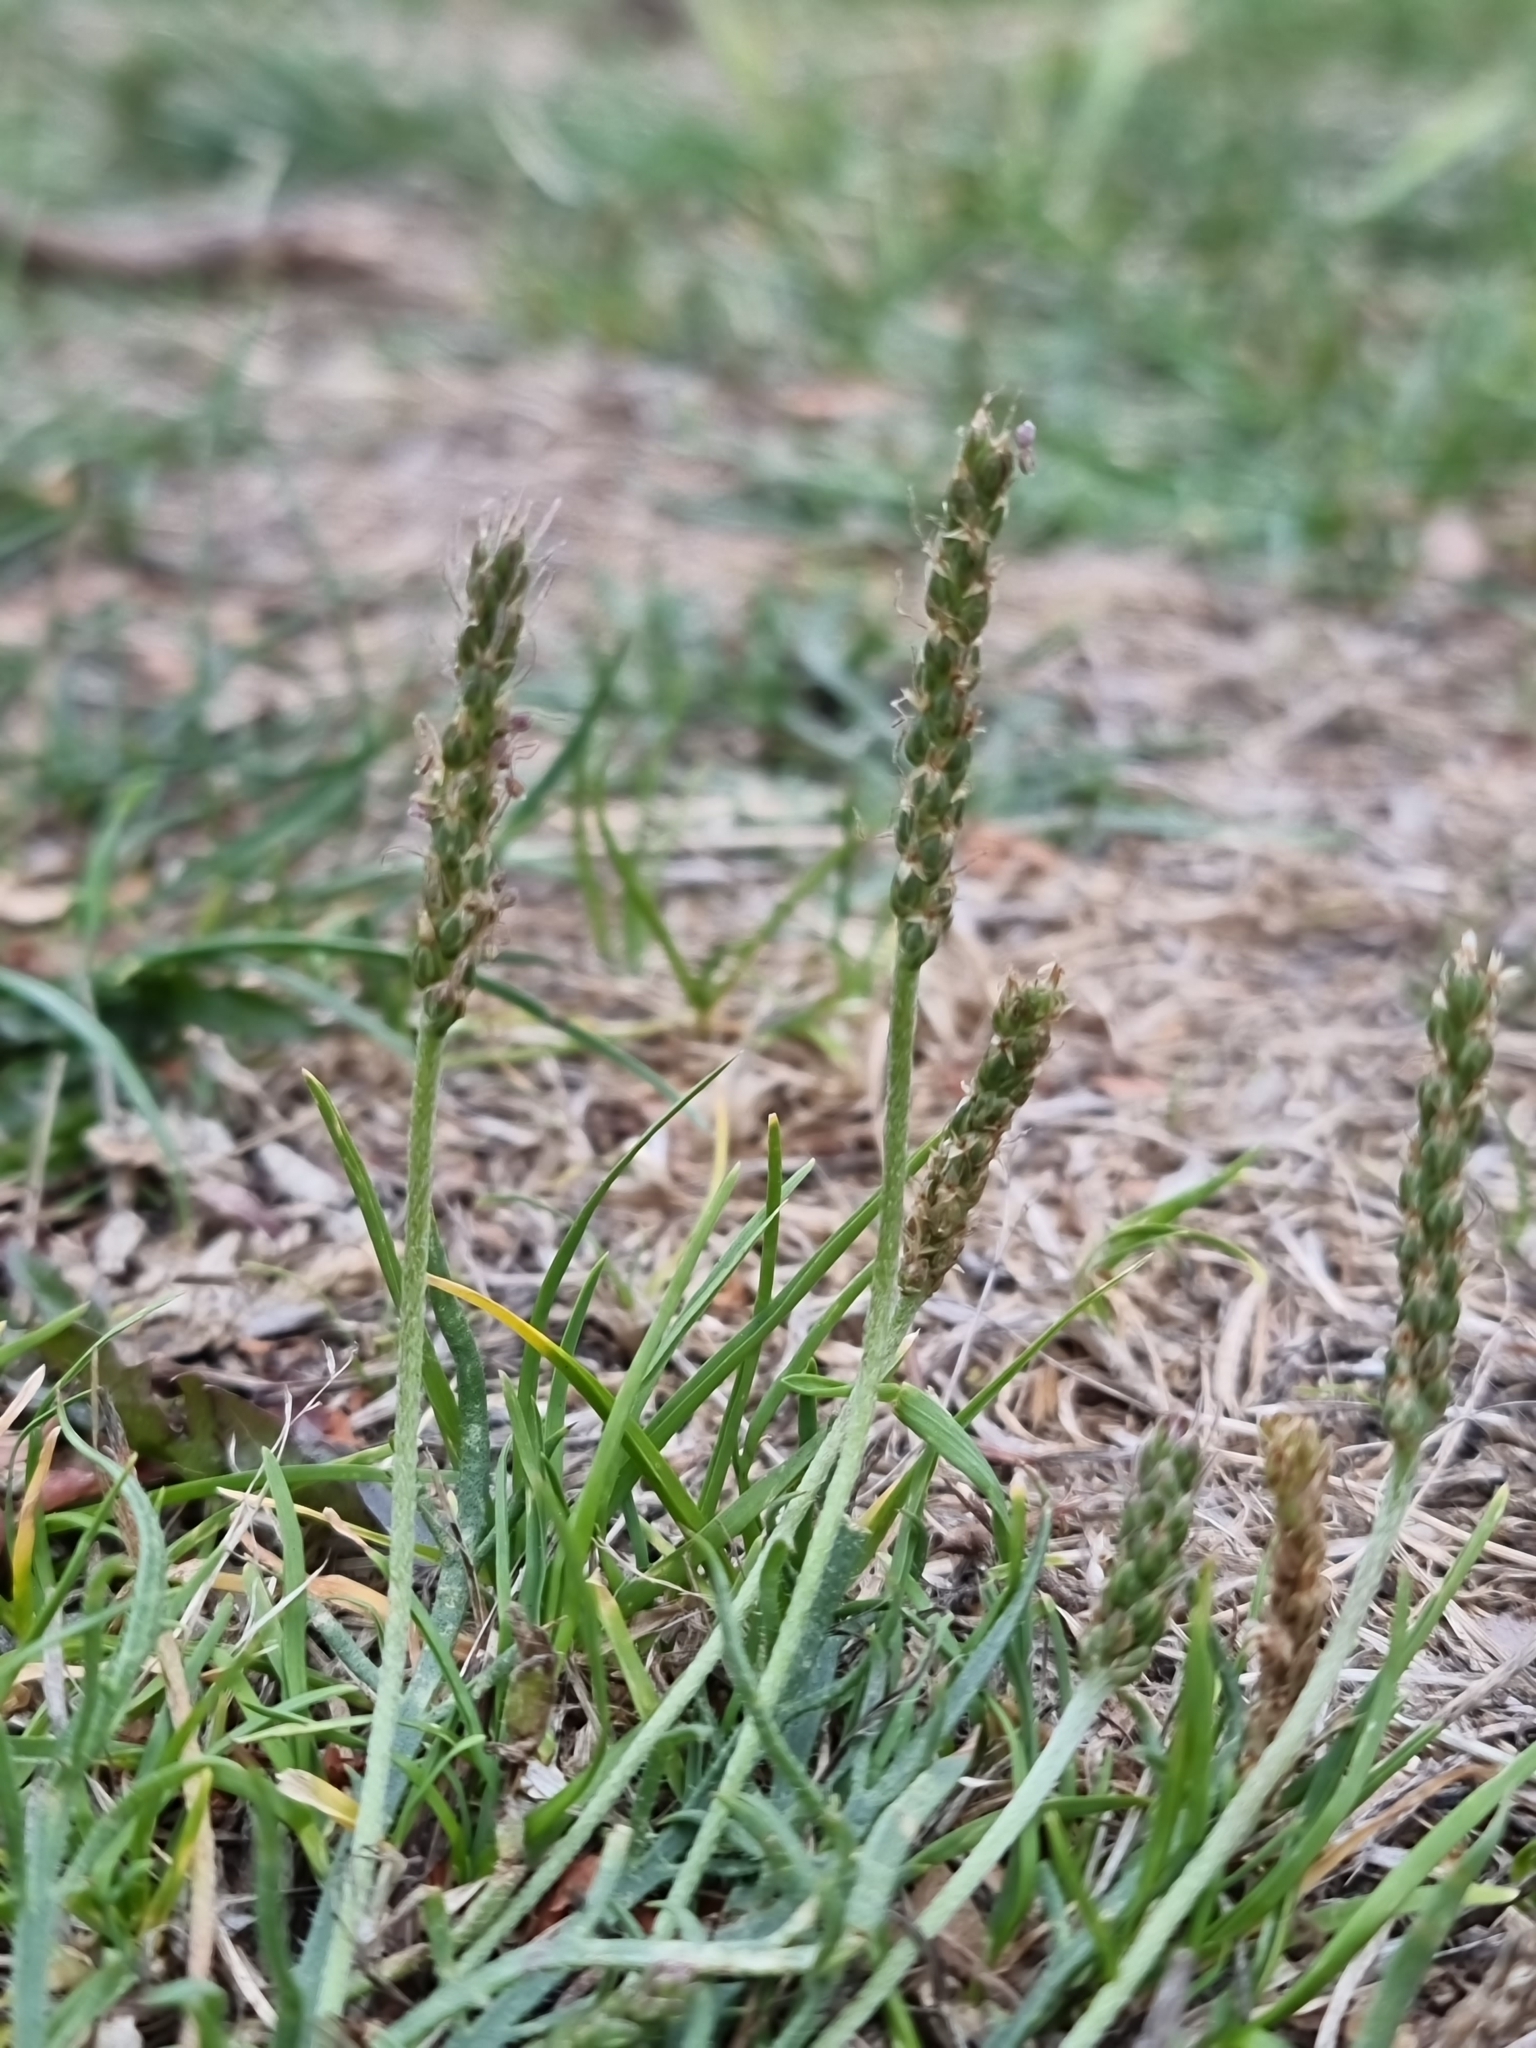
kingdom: Plantae
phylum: Tracheophyta
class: Magnoliopsida
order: Lamiales
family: Plantaginaceae
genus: Plantago
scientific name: Plantago coronopus
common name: Buck's-horn plantain
